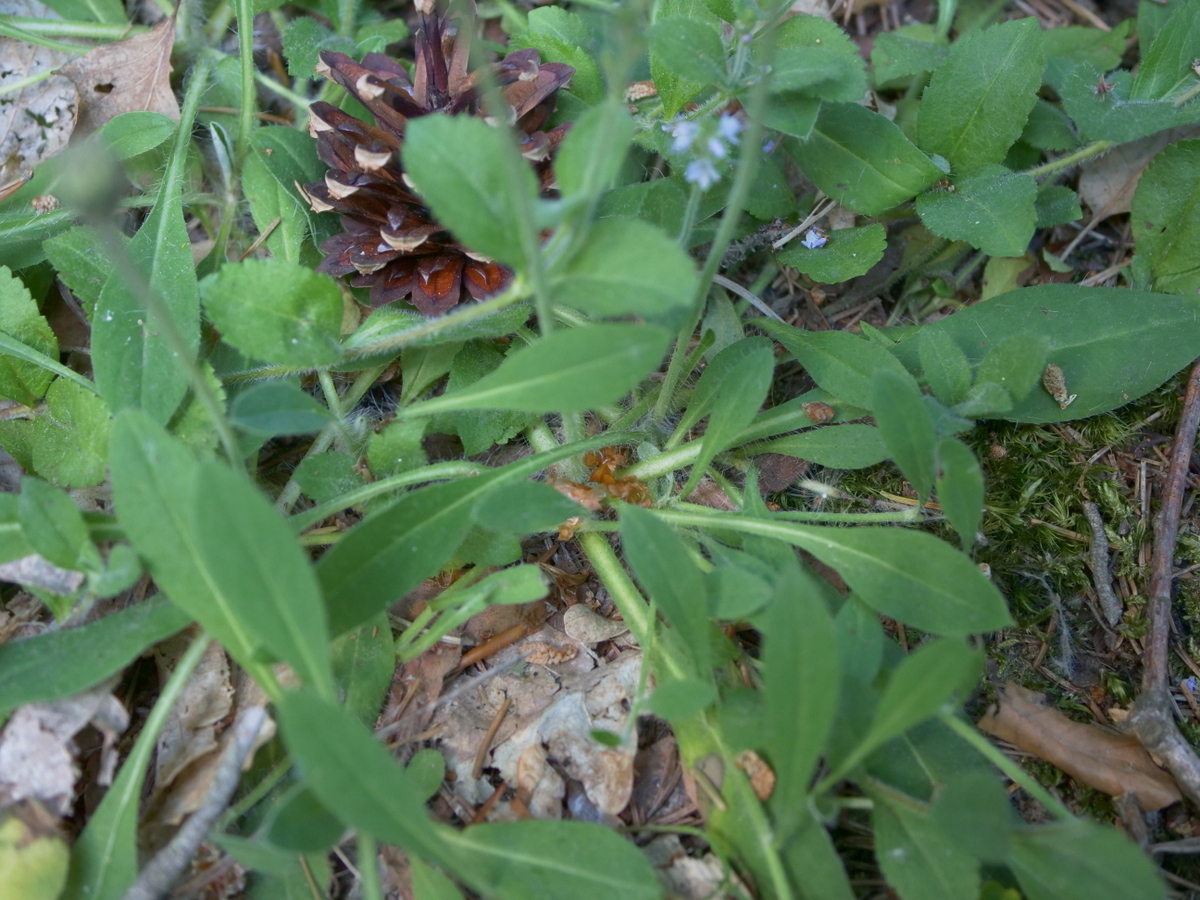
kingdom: Plantae
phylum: Tracheophyta
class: Magnoliopsida
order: Asterales
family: Asteraceae
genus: Pilosella
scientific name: Pilosella officinarum
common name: Mouse-ear hawkweed
